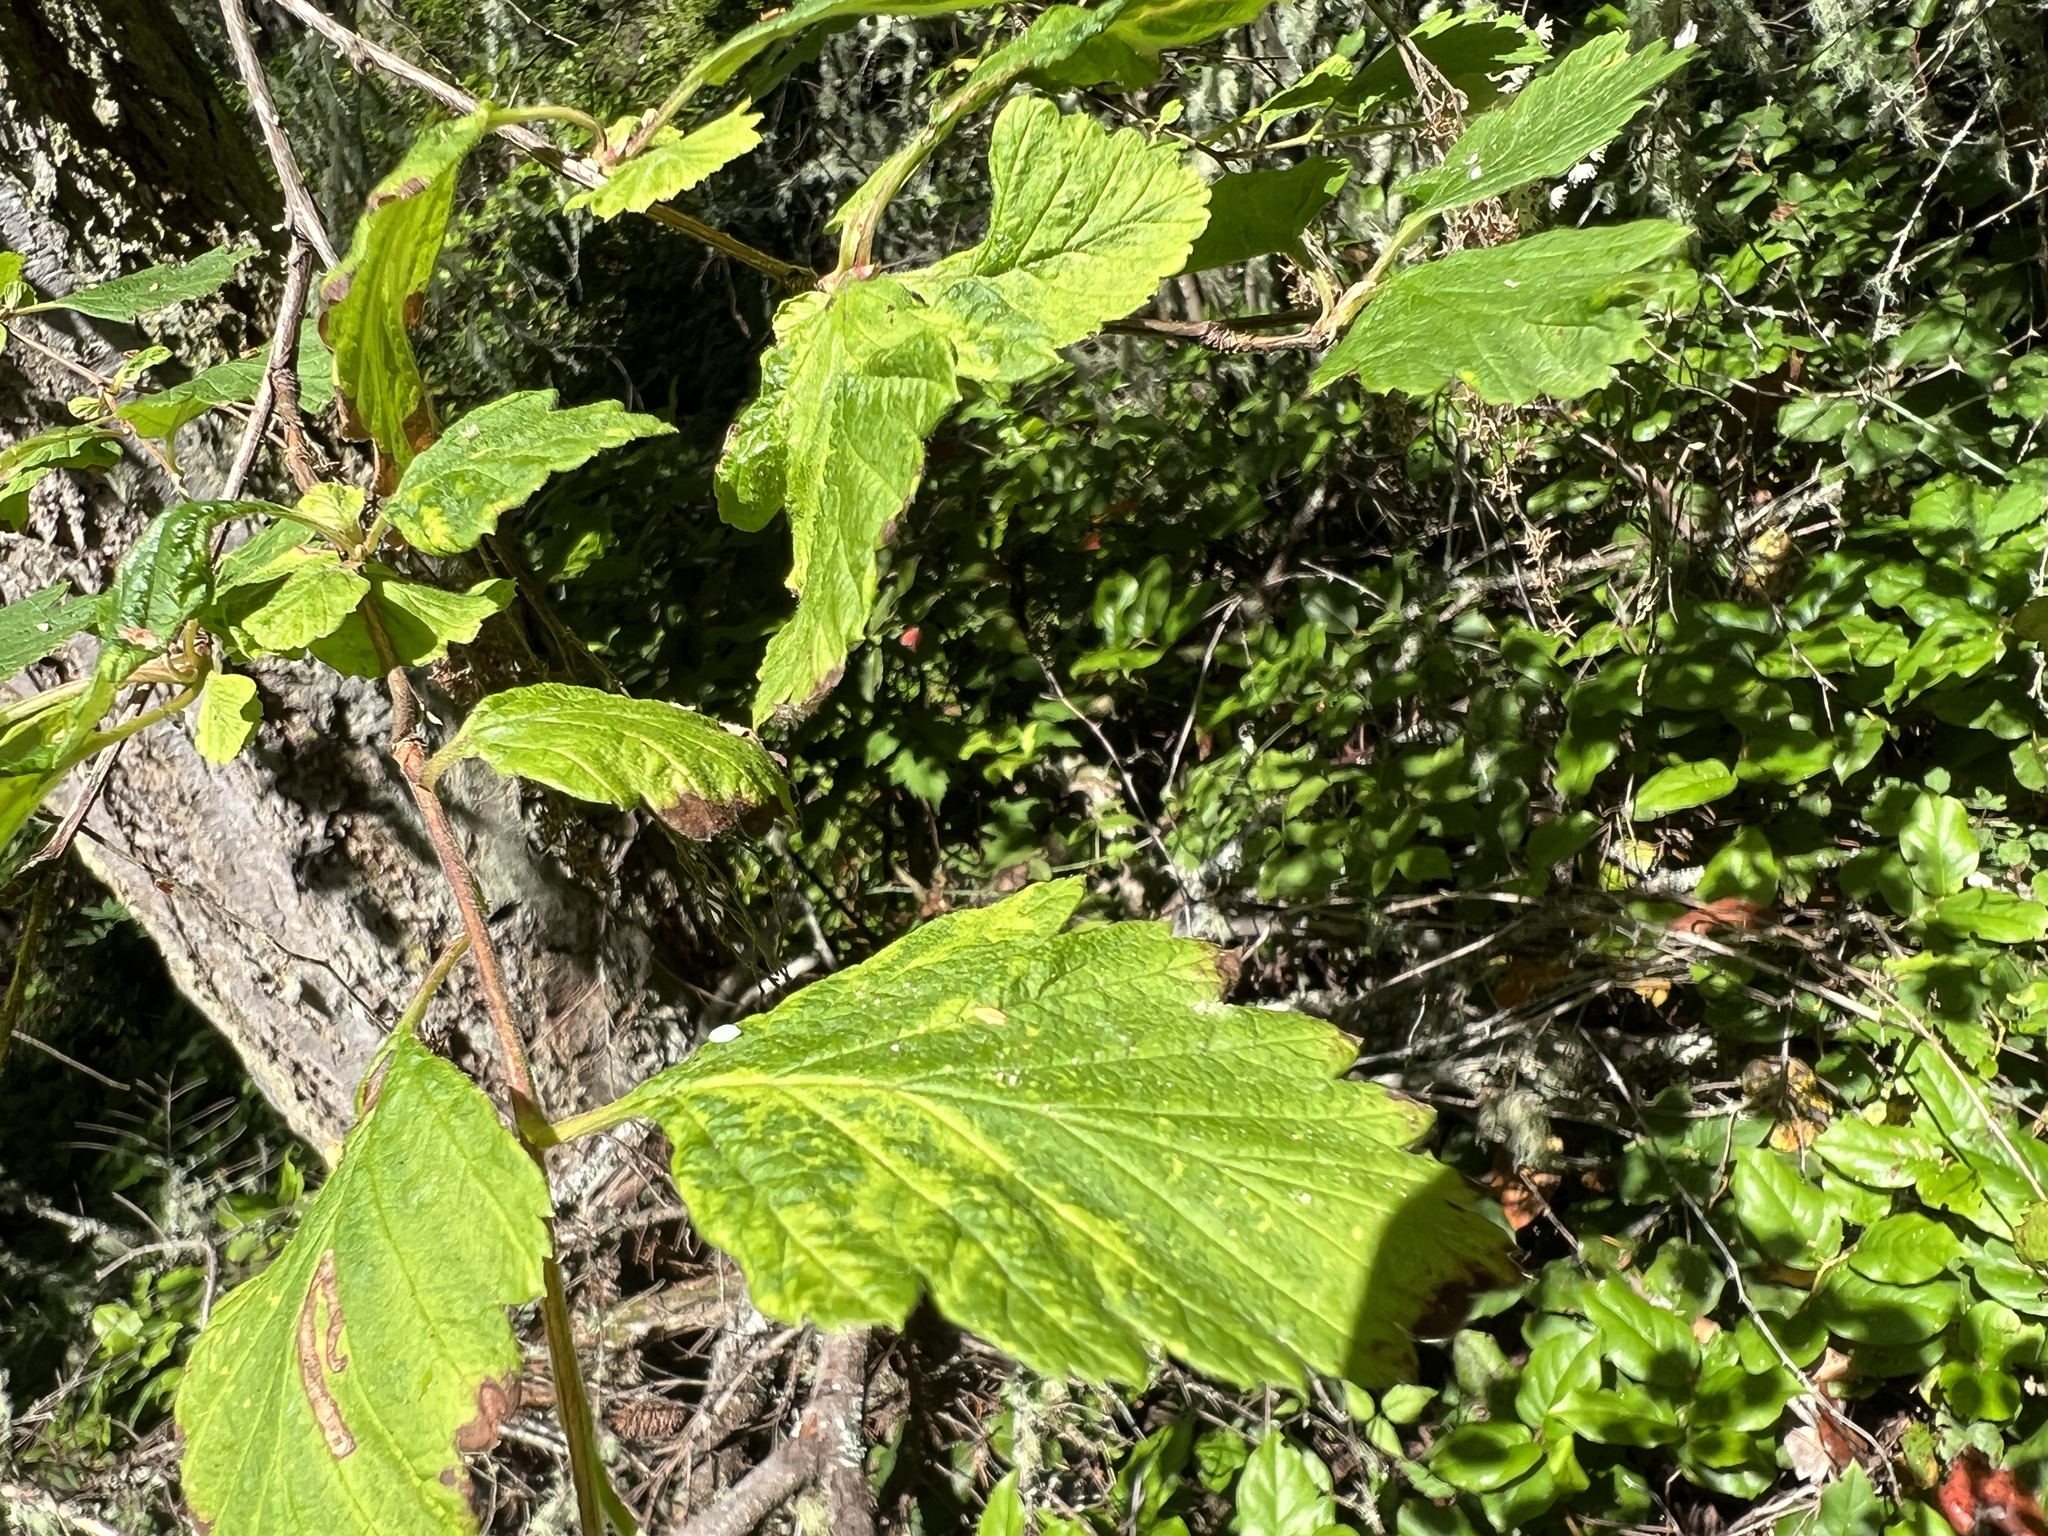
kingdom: Plantae
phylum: Tracheophyta
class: Magnoliopsida
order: Rosales
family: Rosaceae
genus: Holodiscus
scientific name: Holodiscus discolor
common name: Oceanspray
